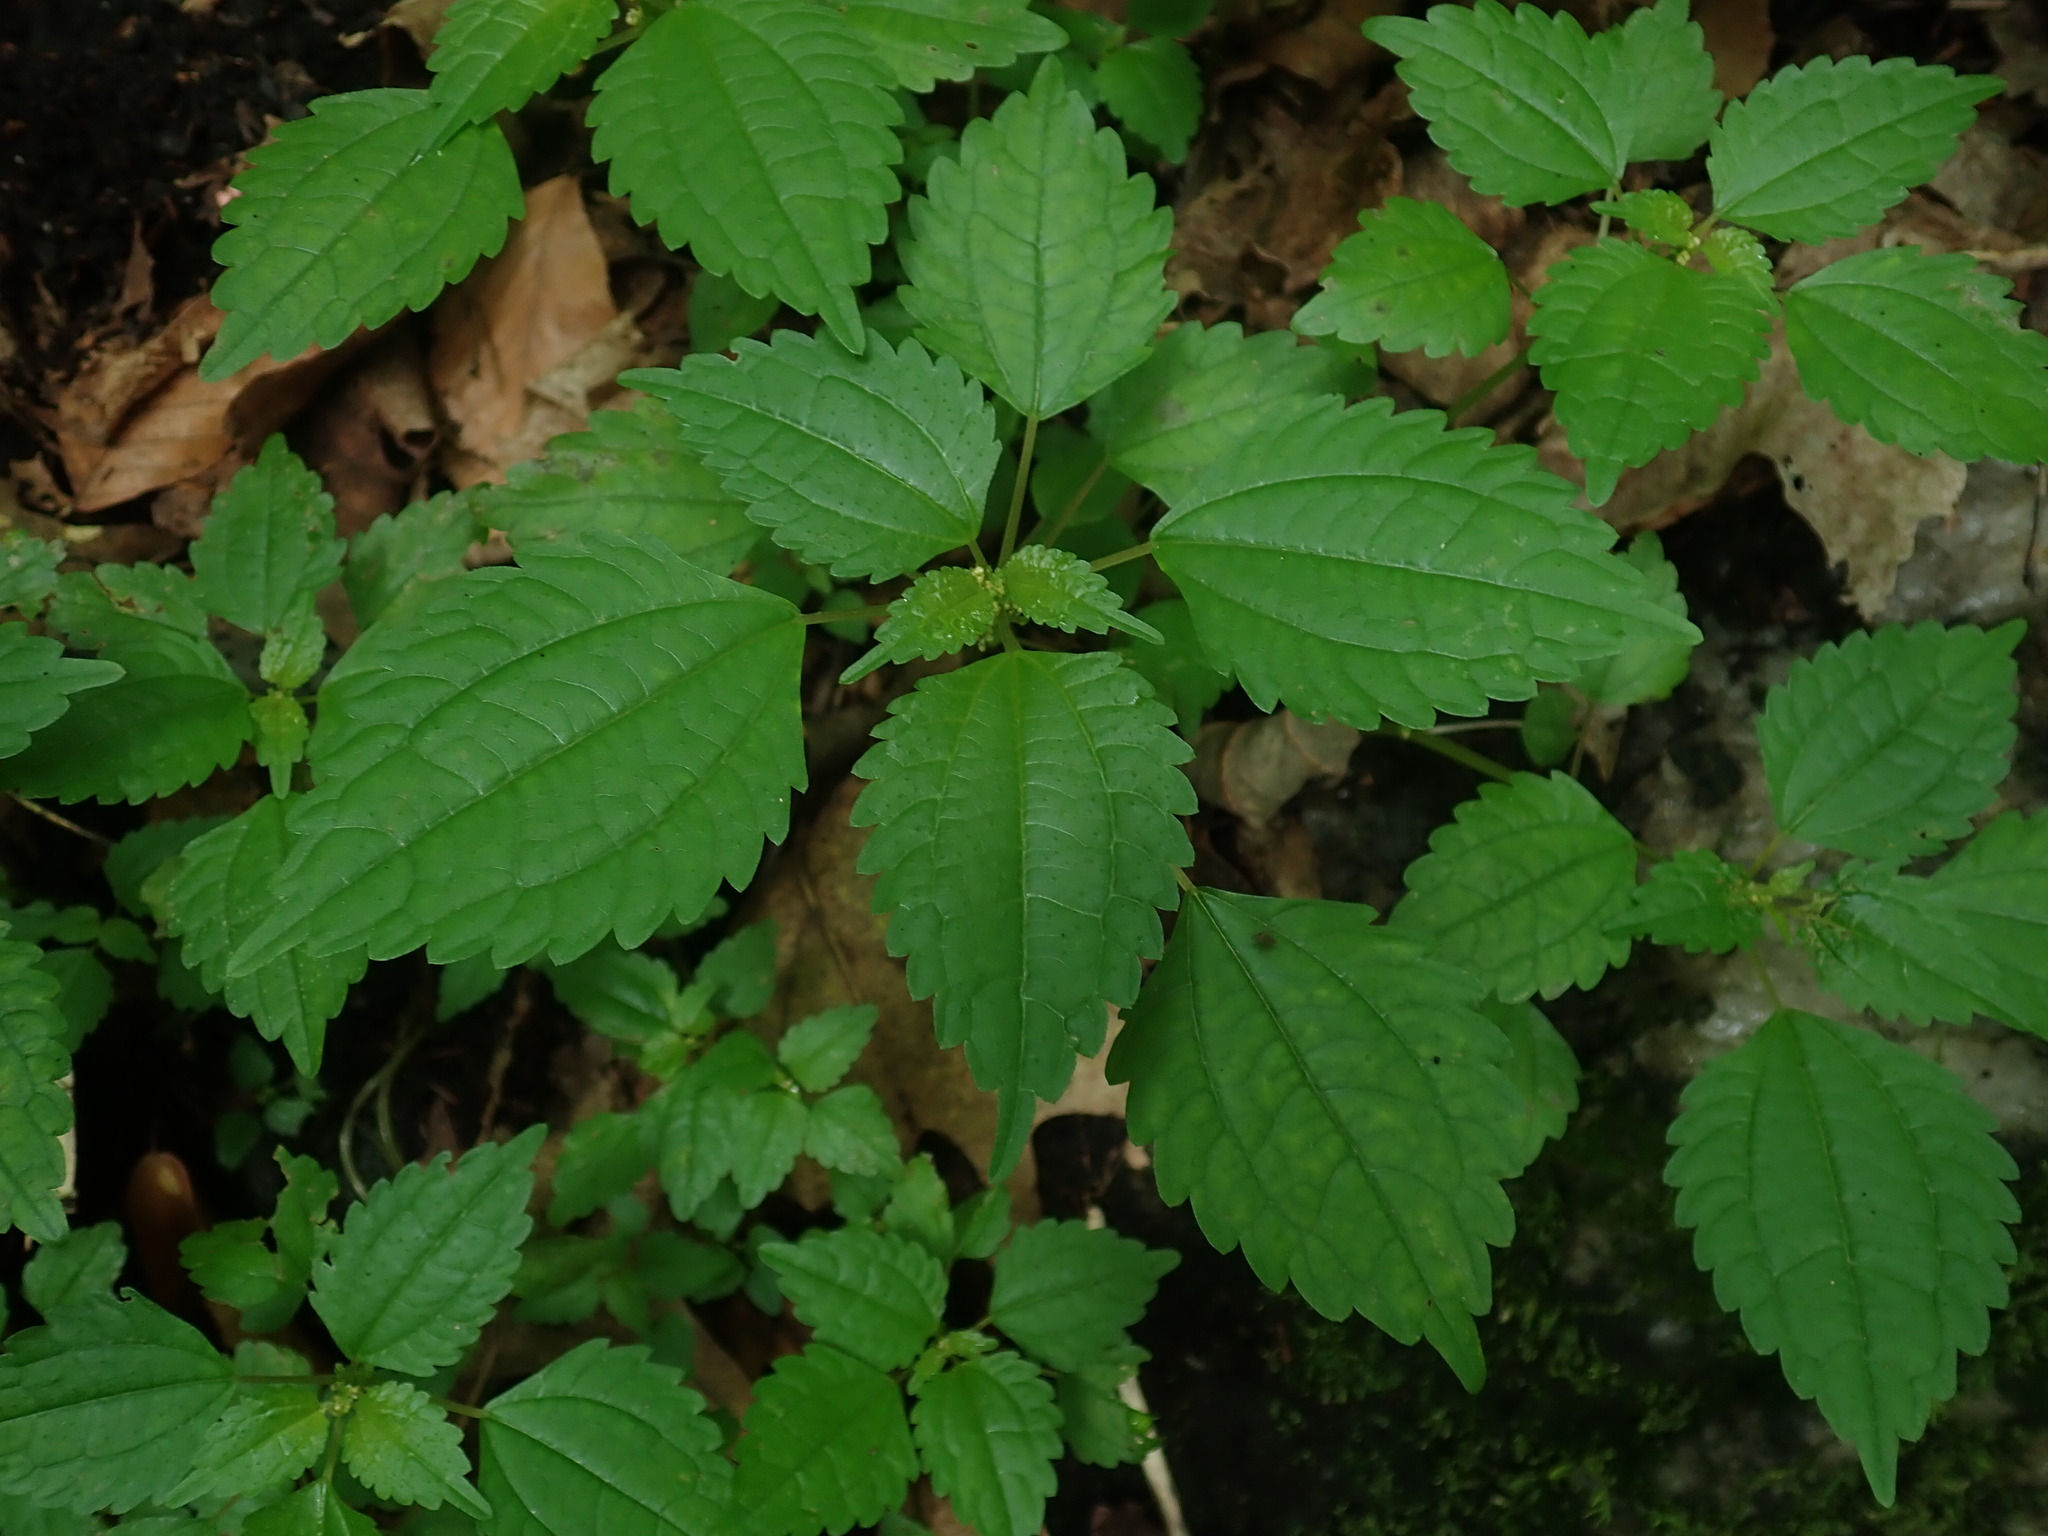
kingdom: Plantae
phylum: Tracheophyta
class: Magnoliopsida
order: Rosales
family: Urticaceae
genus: Pilea
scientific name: Pilea pumila
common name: Clearweed
